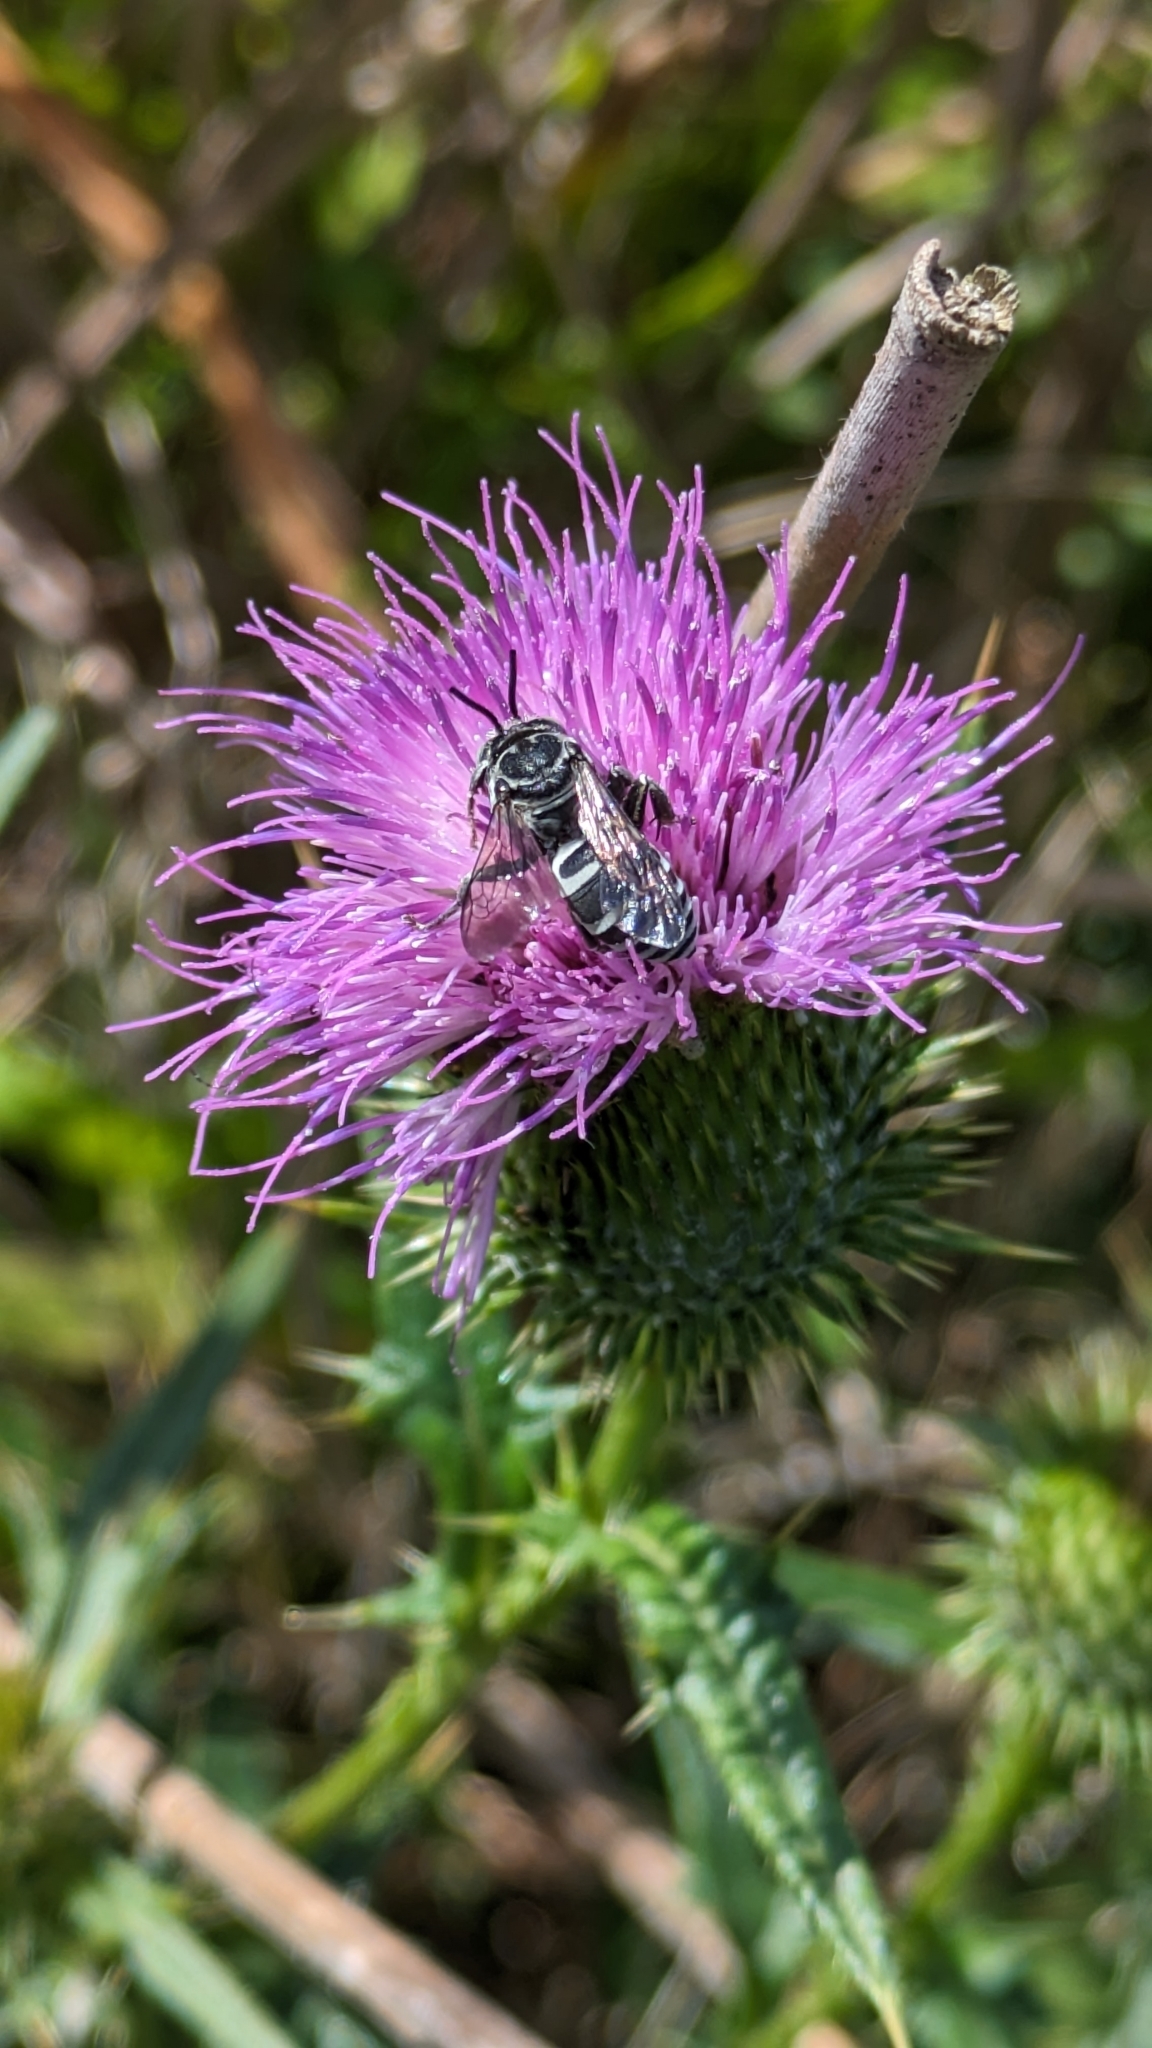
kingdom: Animalia
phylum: Arthropoda
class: Insecta
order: Hymenoptera
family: Apidae
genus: Triepeolus
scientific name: Triepeolus donatus
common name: Thistle longhorn-cuckoo
